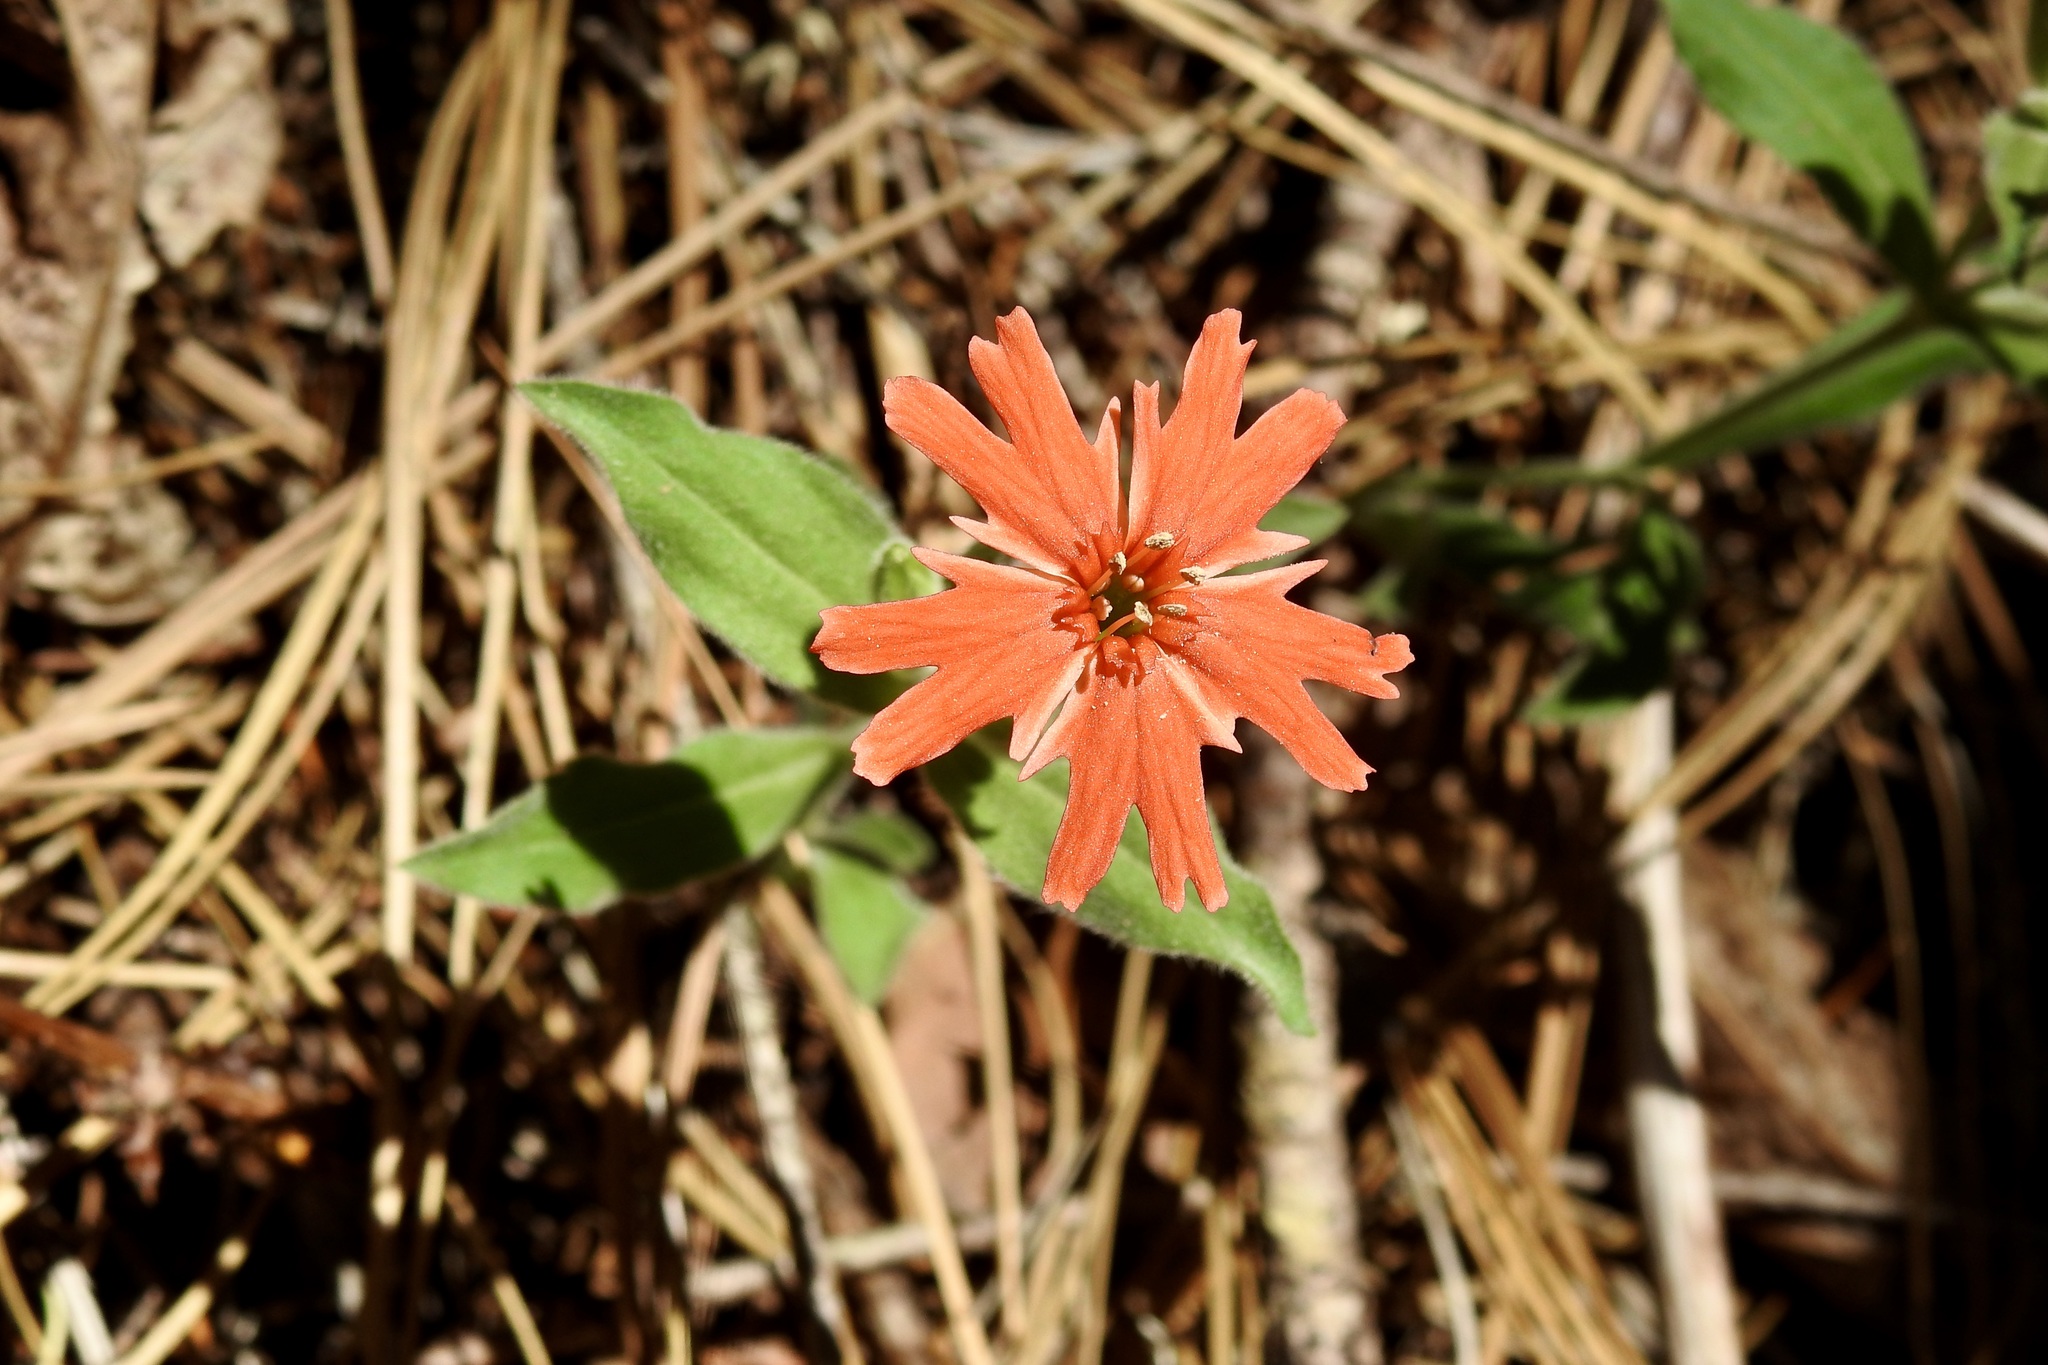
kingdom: Plantae
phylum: Tracheophyta
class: Magnoliopsida
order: Caryophyllales
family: Caryophyllaceae
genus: Silene
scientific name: Silene laciniata
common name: Indian-pink
